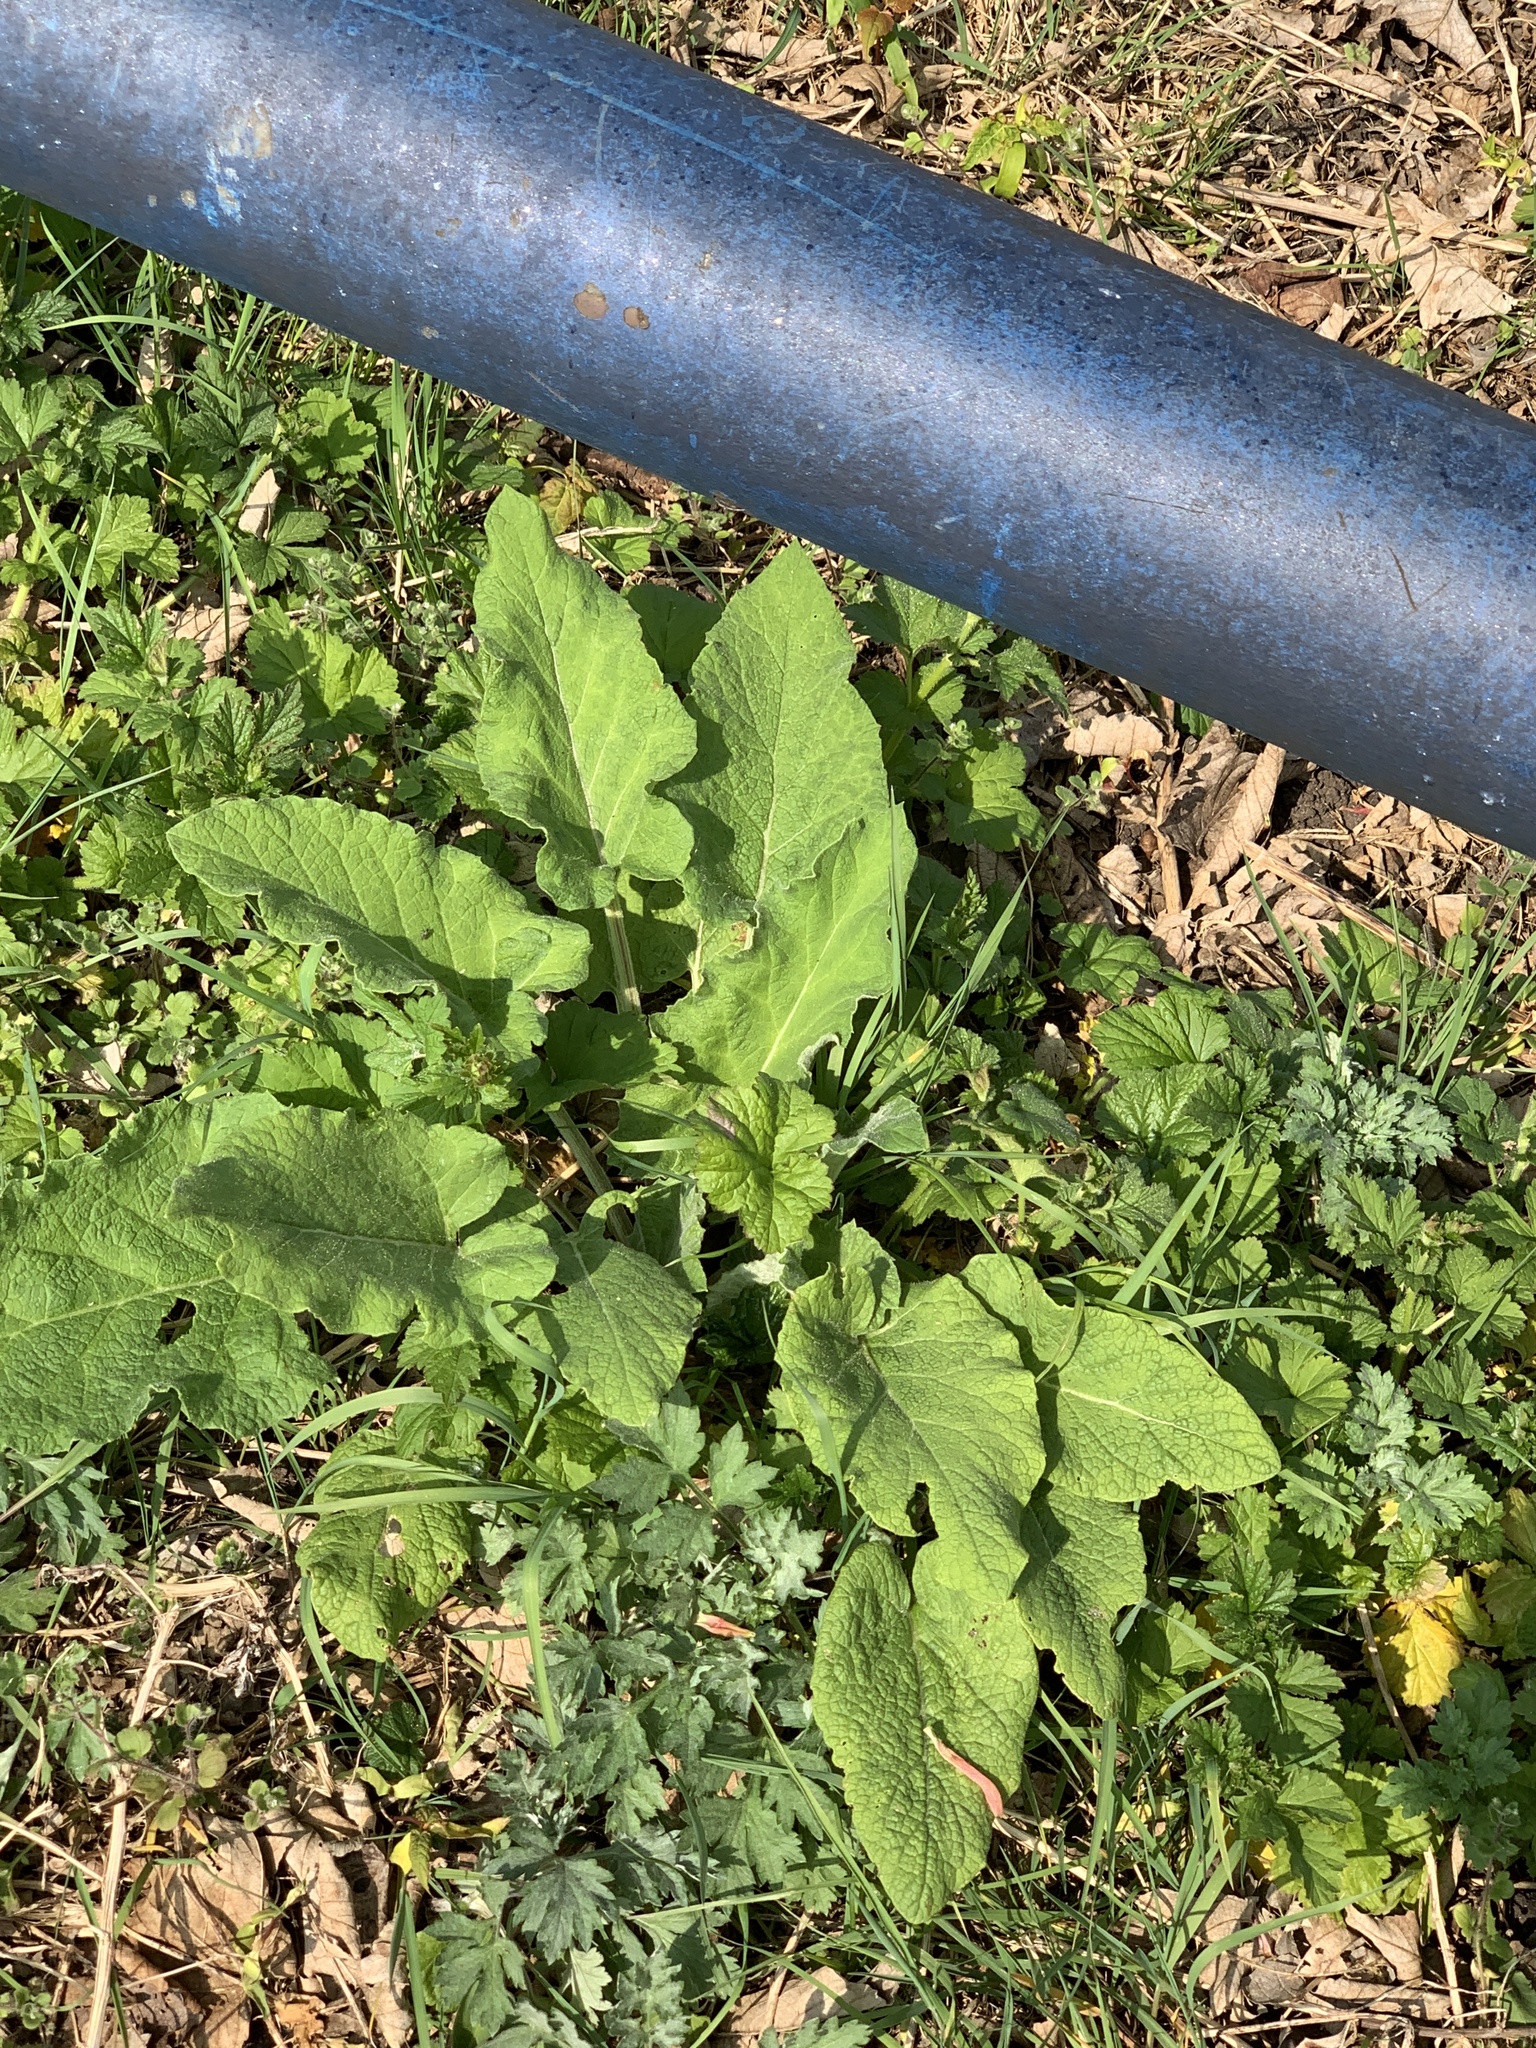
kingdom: Plantae
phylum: Tracheophyta
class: Magnoliopsida
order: Asterales
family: Asteraceae
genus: Arctium
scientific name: Arctium minus
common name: Lesser burdock
